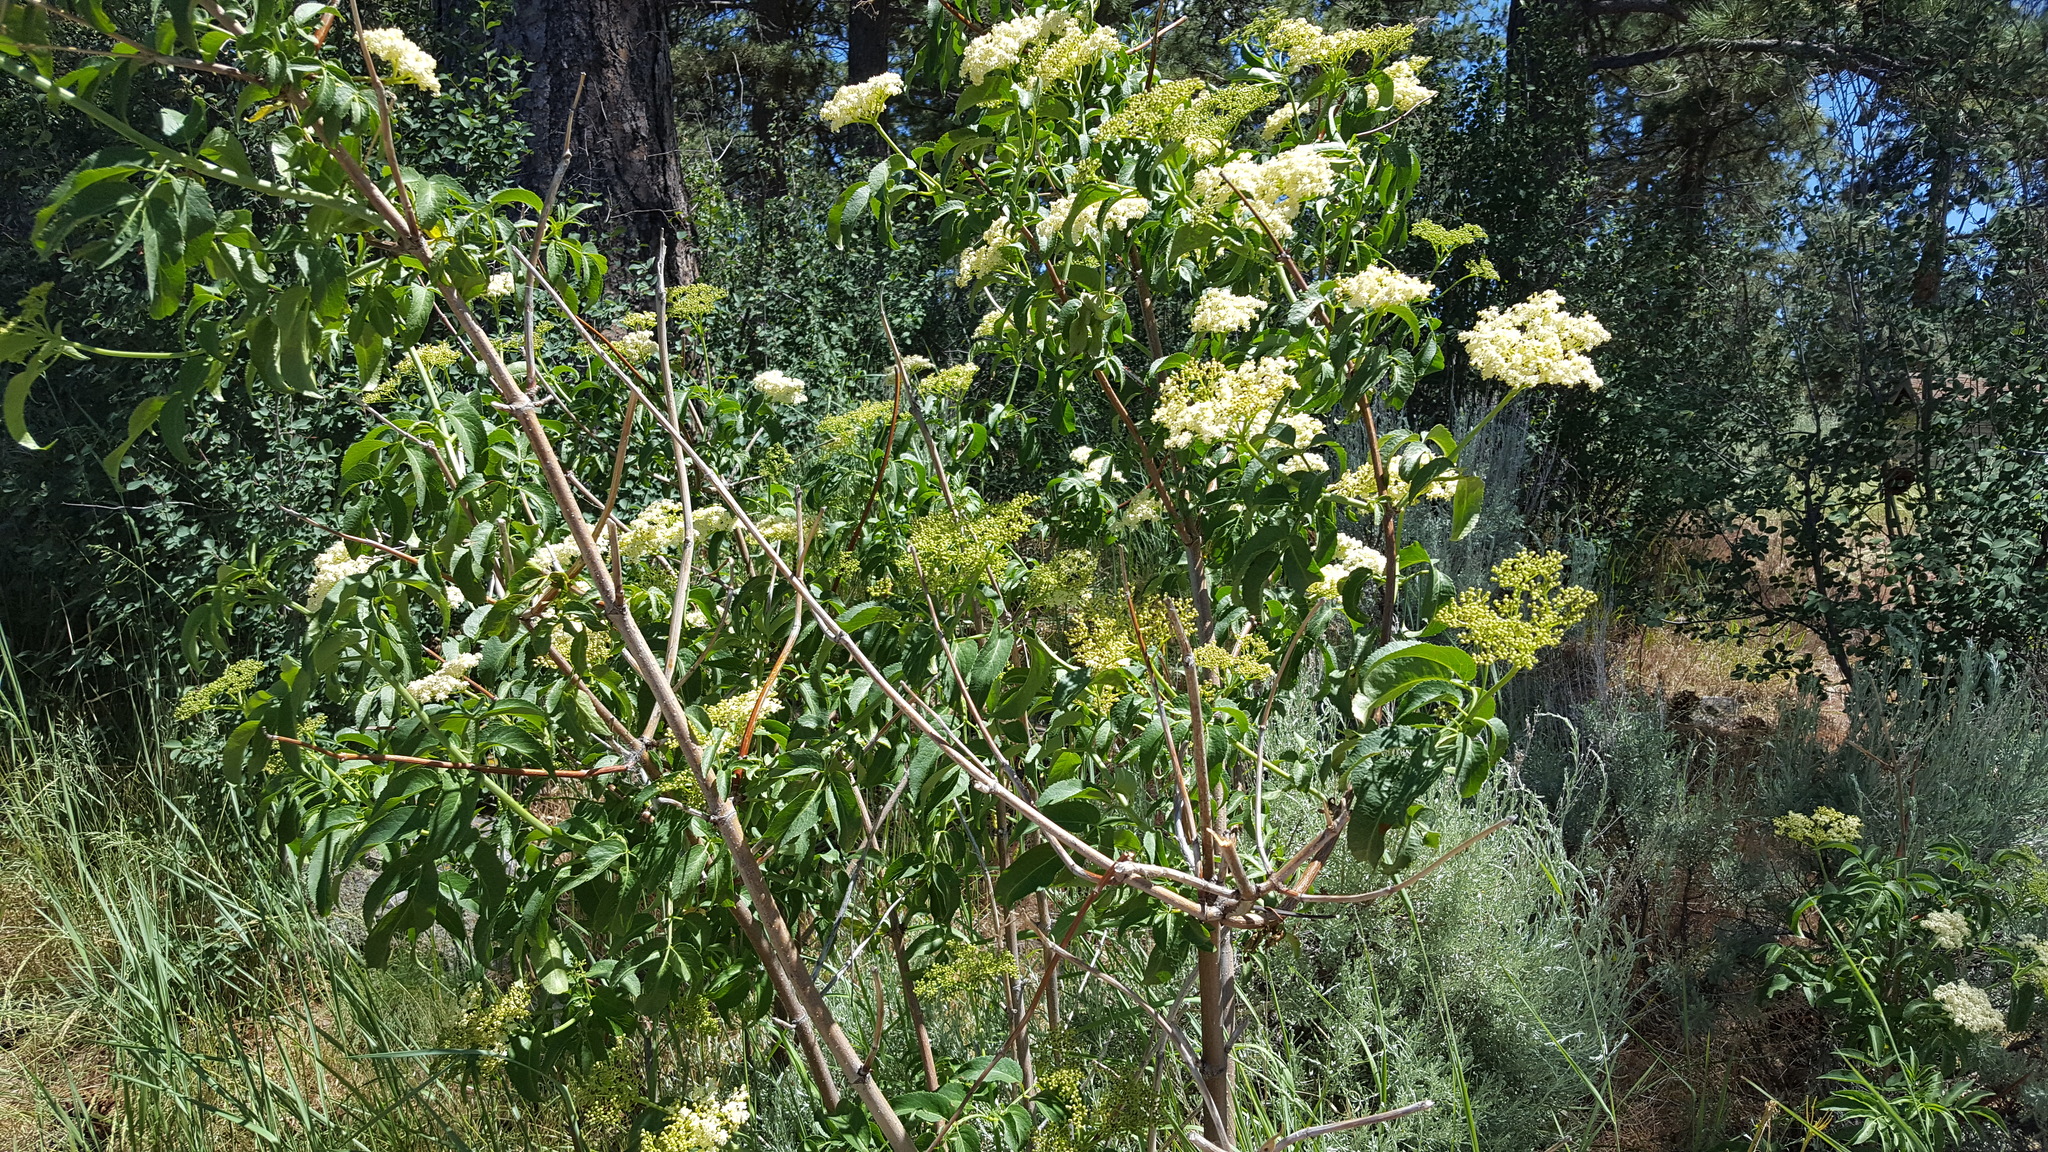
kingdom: Plantae
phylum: Tracheophyta
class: Magnoliopsida
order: Dipsacales
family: Viburnaceae
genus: Sambucus
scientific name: Sambucus cerulea
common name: Blue elder
